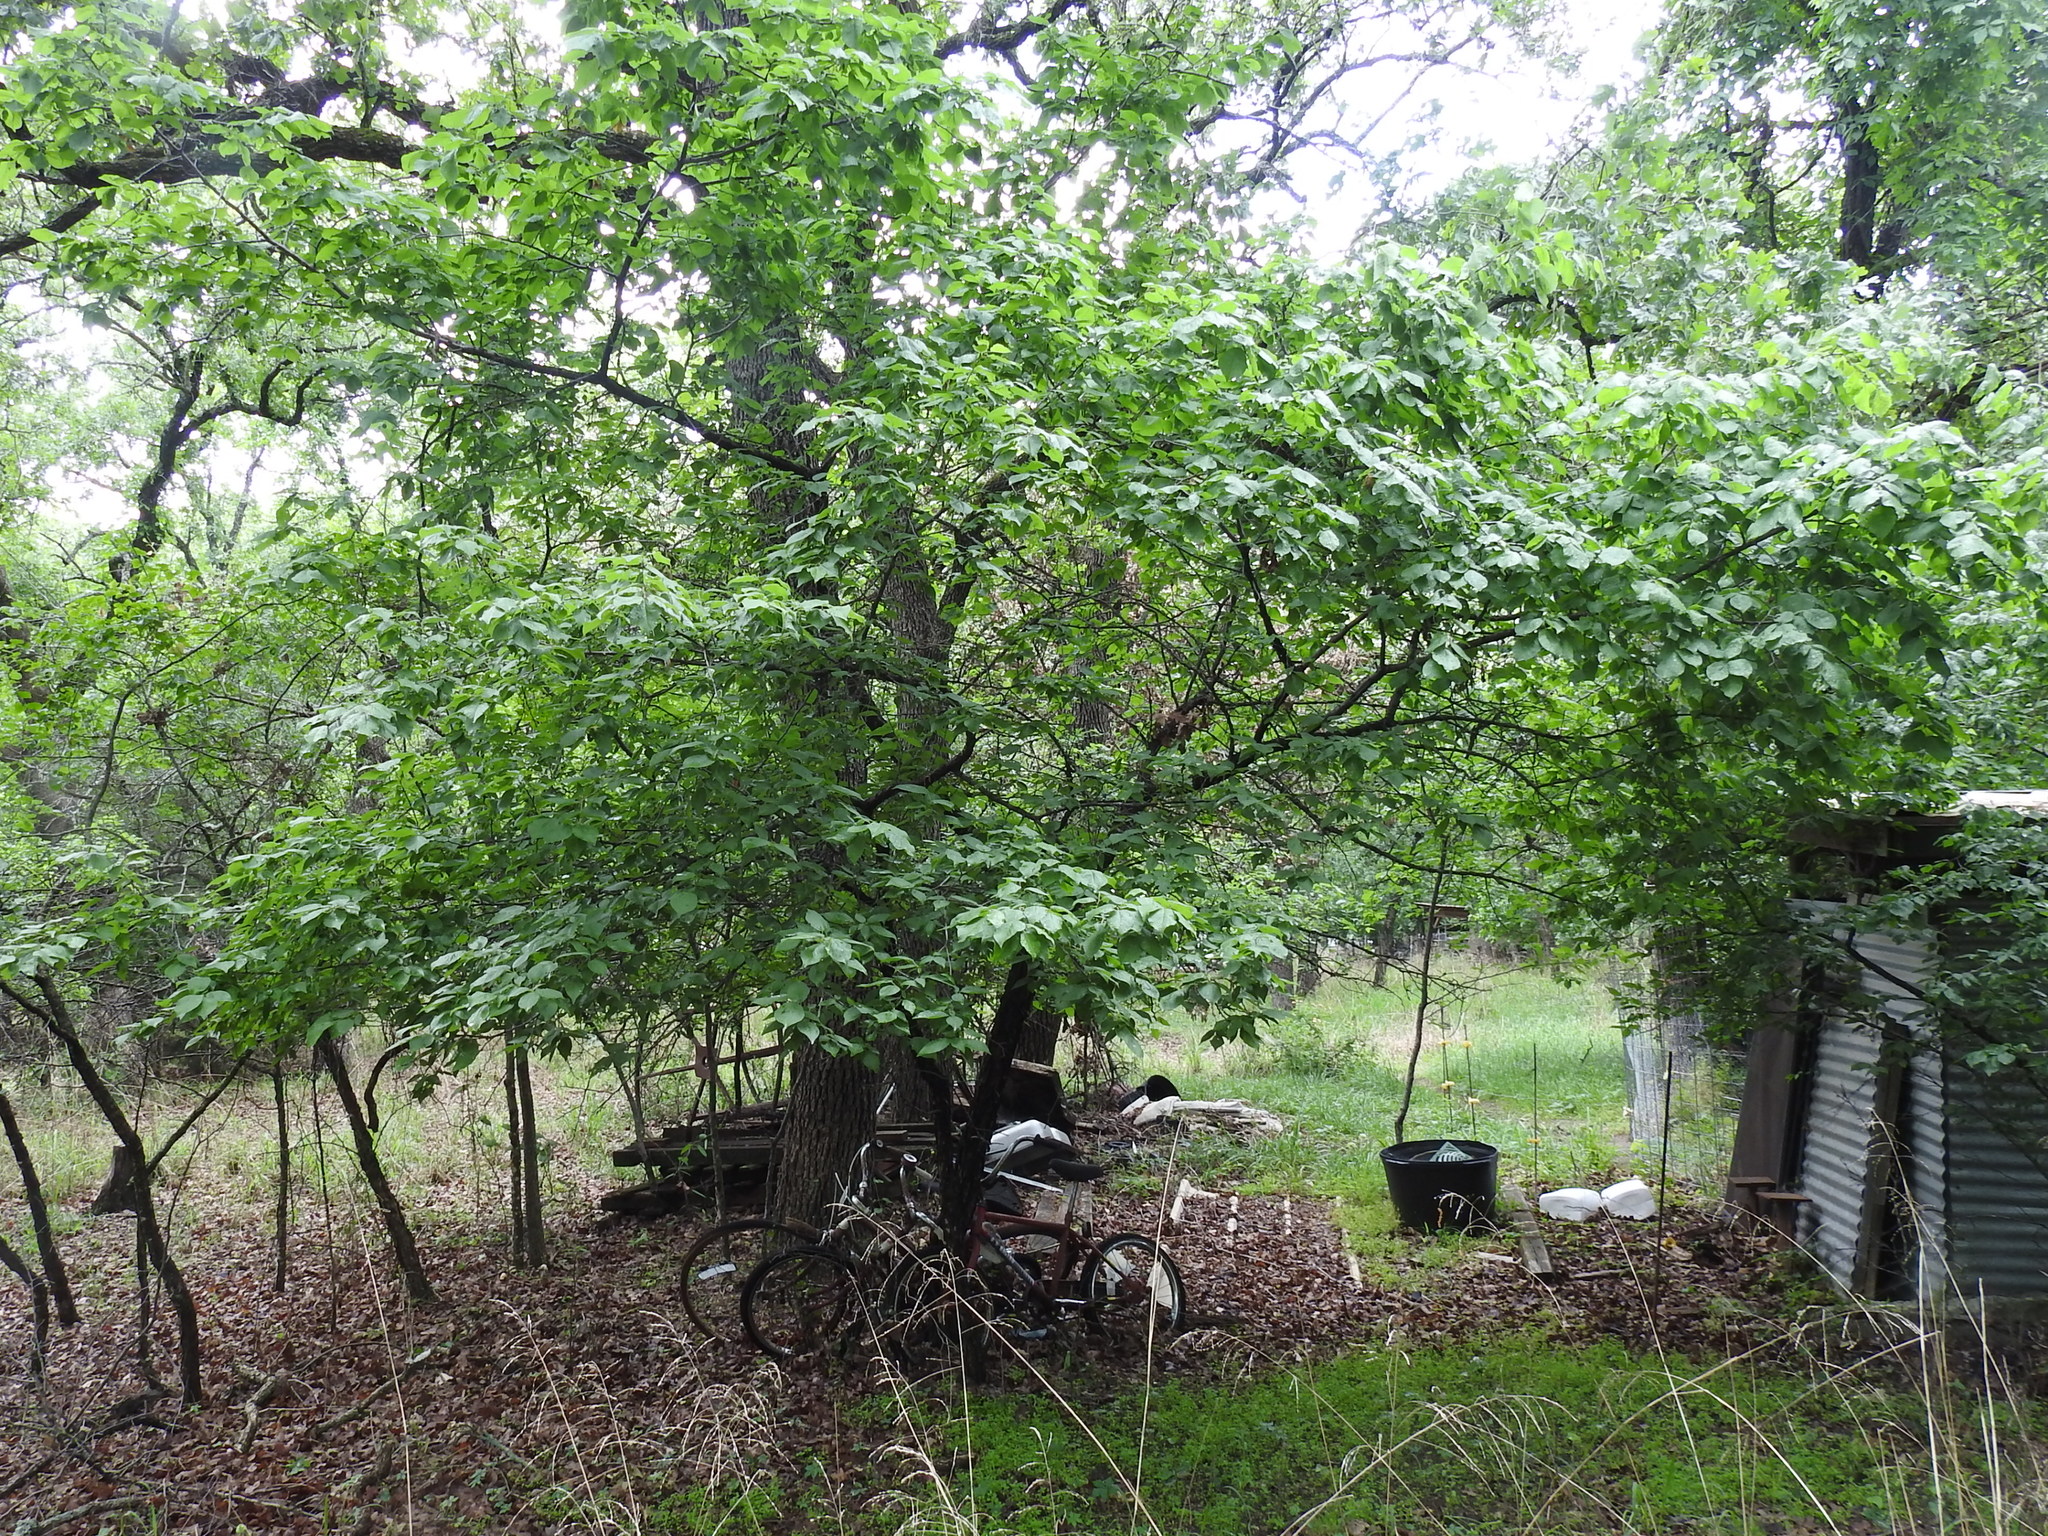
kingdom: Plantae
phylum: Tracheophyta
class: Magnoliopsida
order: Rosales
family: Rosaceae
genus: Prunus
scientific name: Prunus mexicana
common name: Mexican plum
